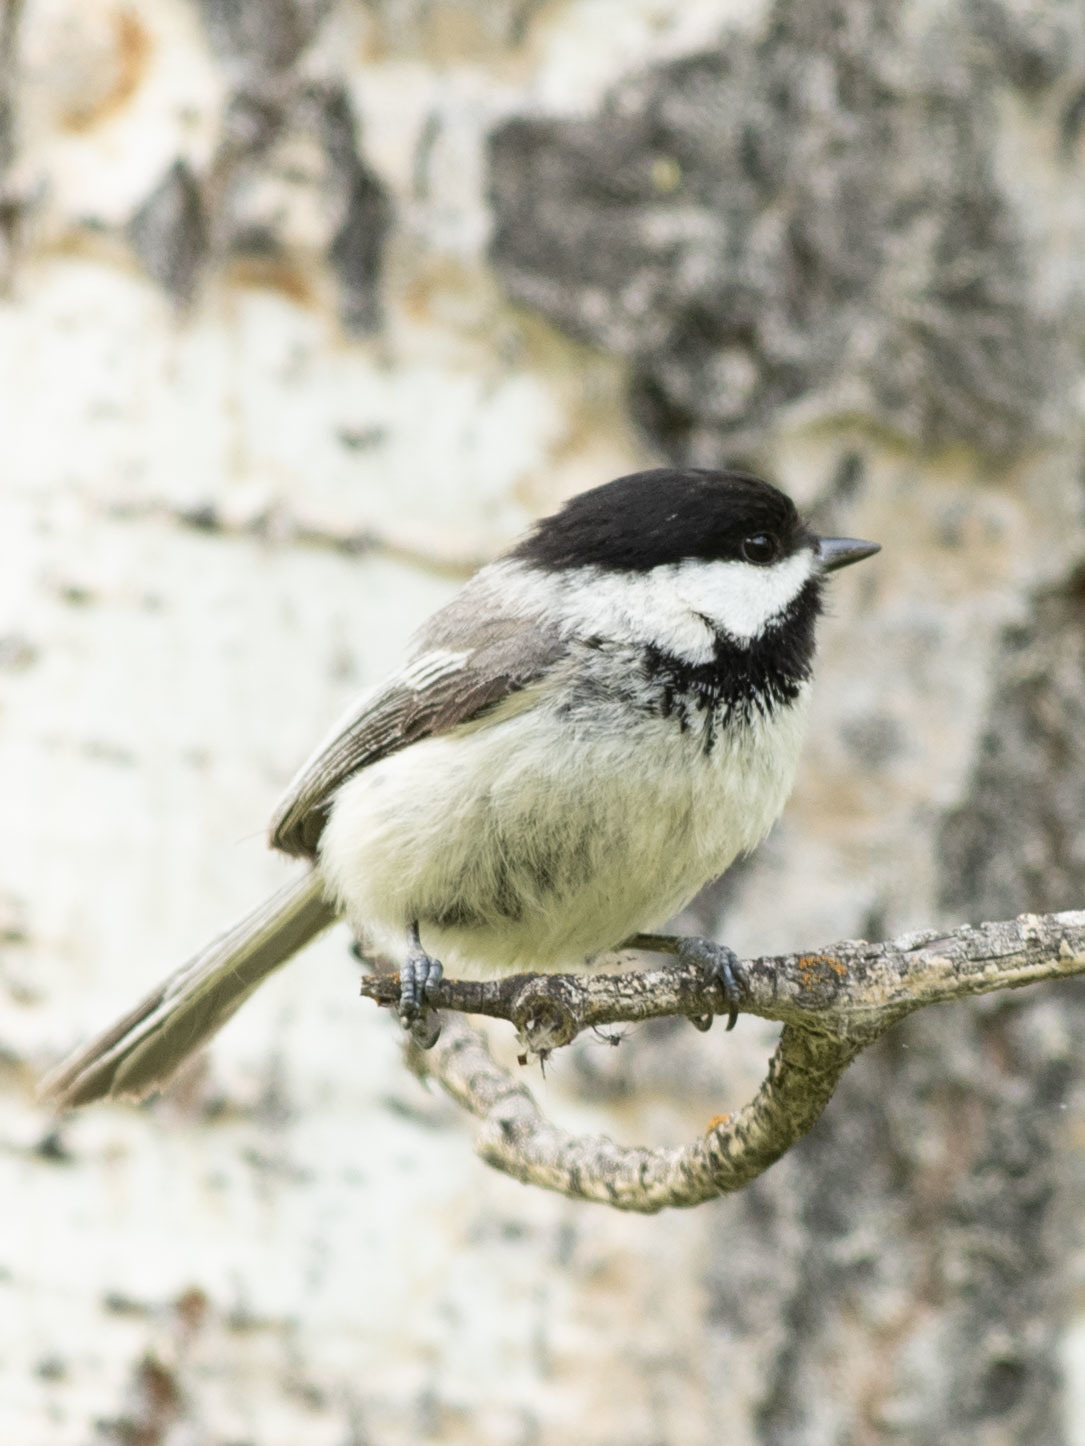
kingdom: Animalia
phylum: Chordata
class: Aves
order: Passeriformes
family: Paridae
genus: Poecile
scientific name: Poecile atricapillus
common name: Black-capped chickadee
